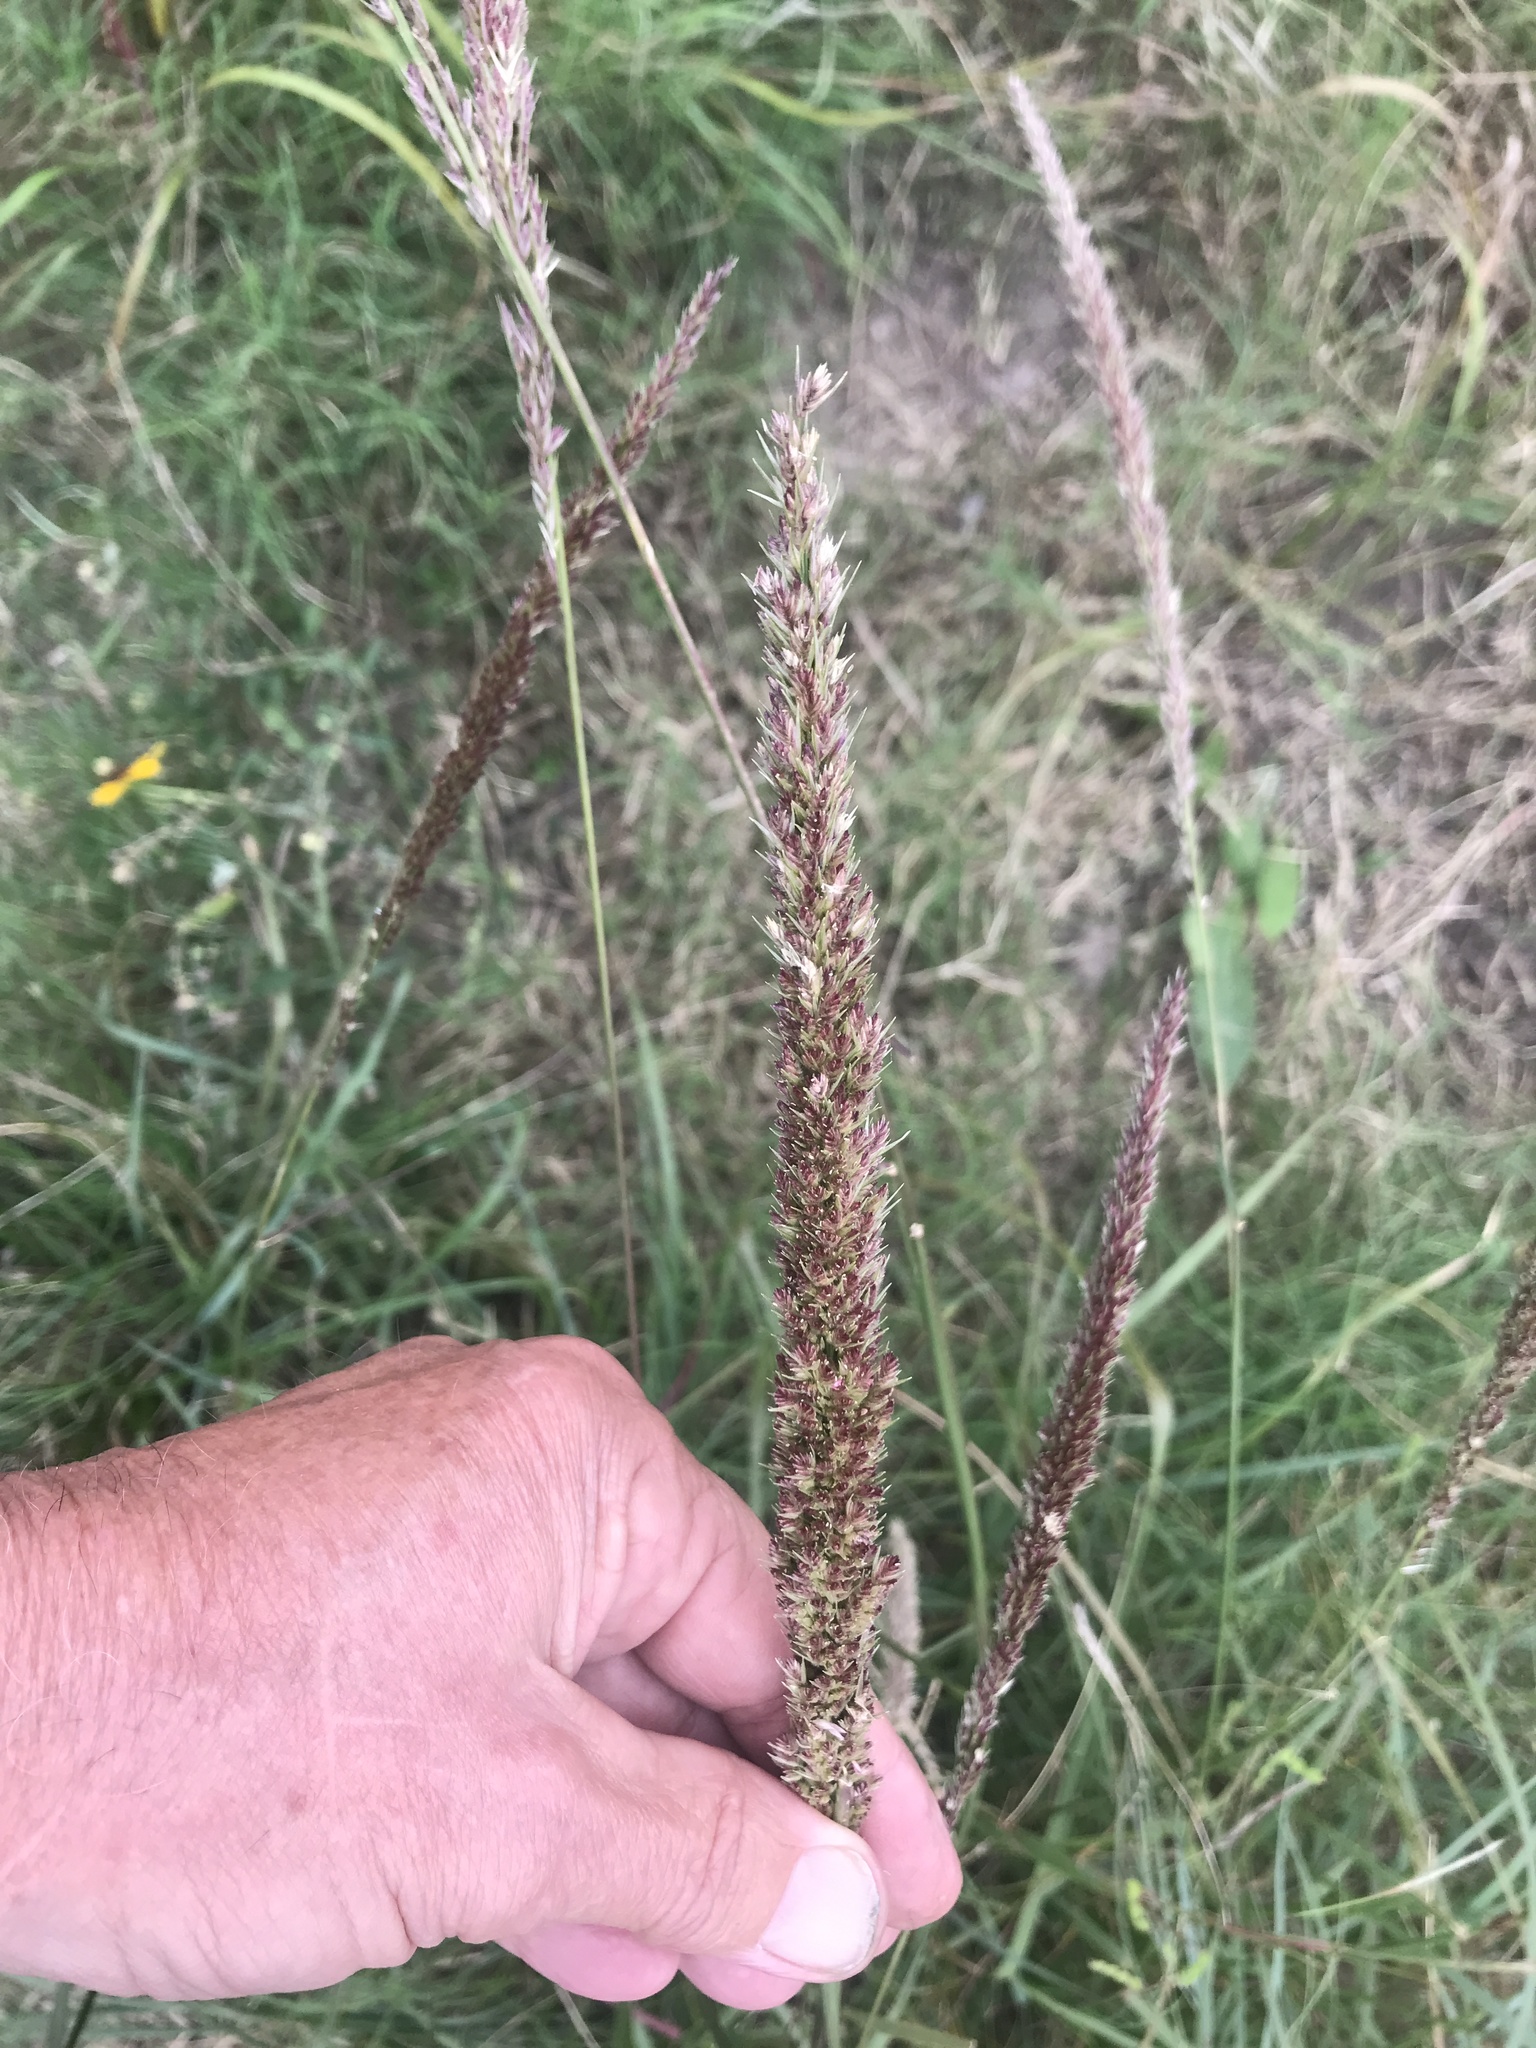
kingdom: Plantae
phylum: Tracheophyta
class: Liliopsida
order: Poales
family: Poaceae
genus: Tridens
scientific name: Tridens strictus
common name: Long-spike tridens
